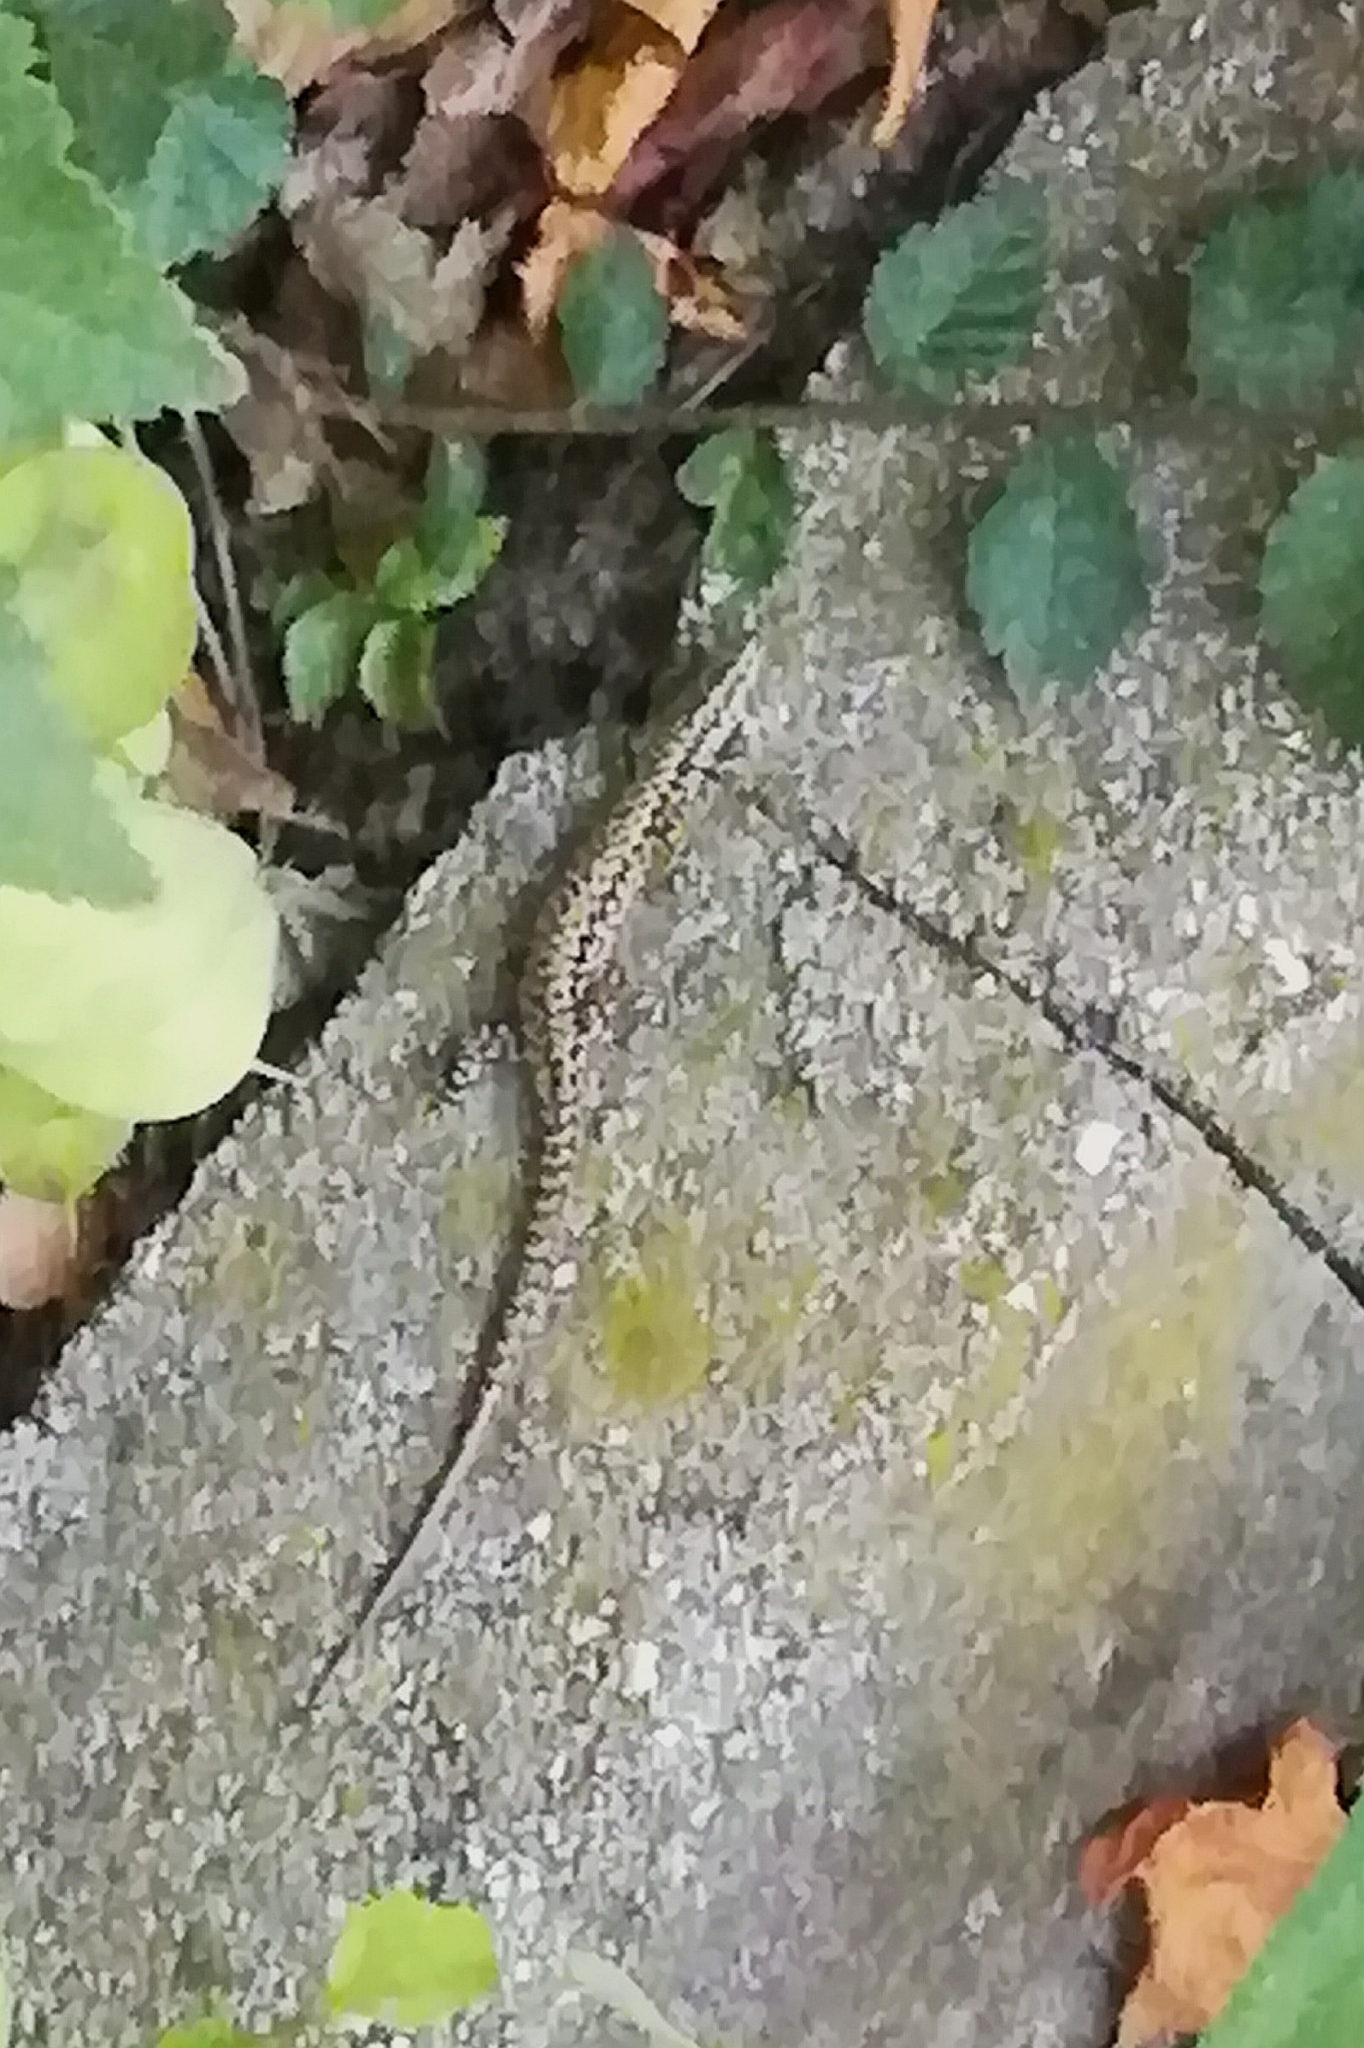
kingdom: Animalia
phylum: Chordata
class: Squamata
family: Lacertidae
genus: Podarcis
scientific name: Podarcis muralis
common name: Common wall lizard
